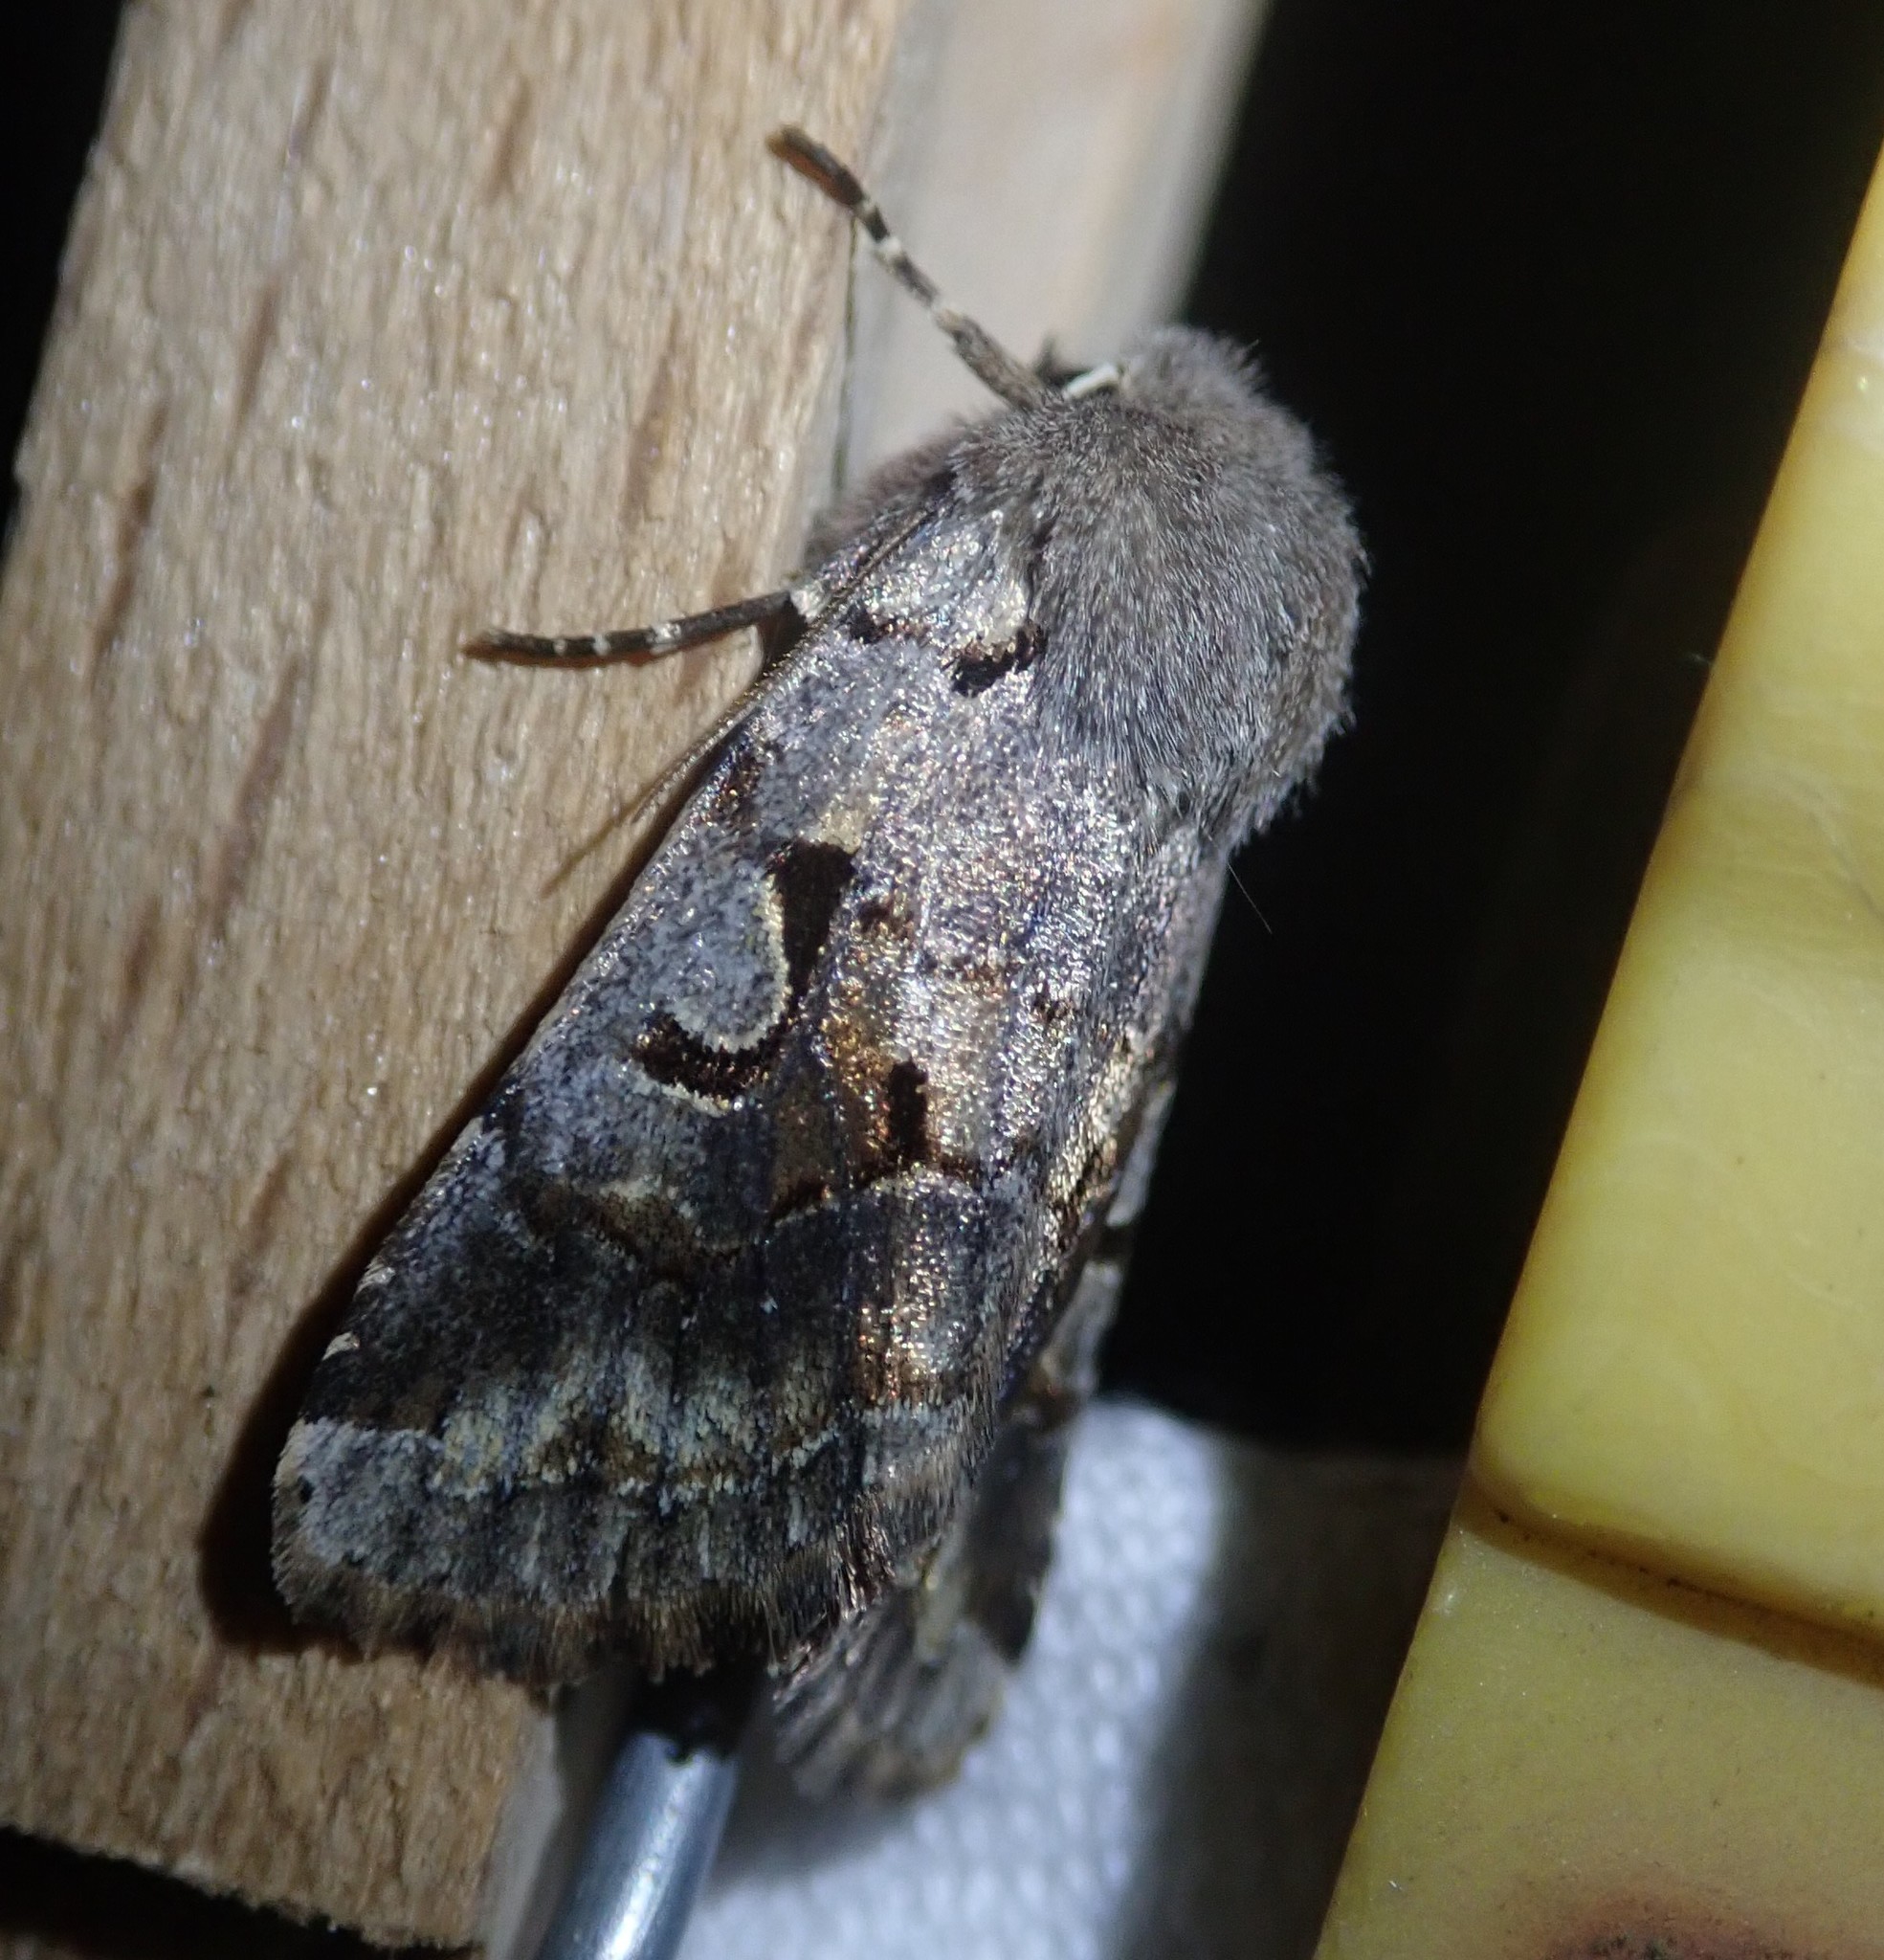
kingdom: Animalia
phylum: Arthropoda
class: Insecta
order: Lepidoptera
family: Noctuidae
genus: Orthosia
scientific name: Orthosia gothica
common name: Hebrew character
